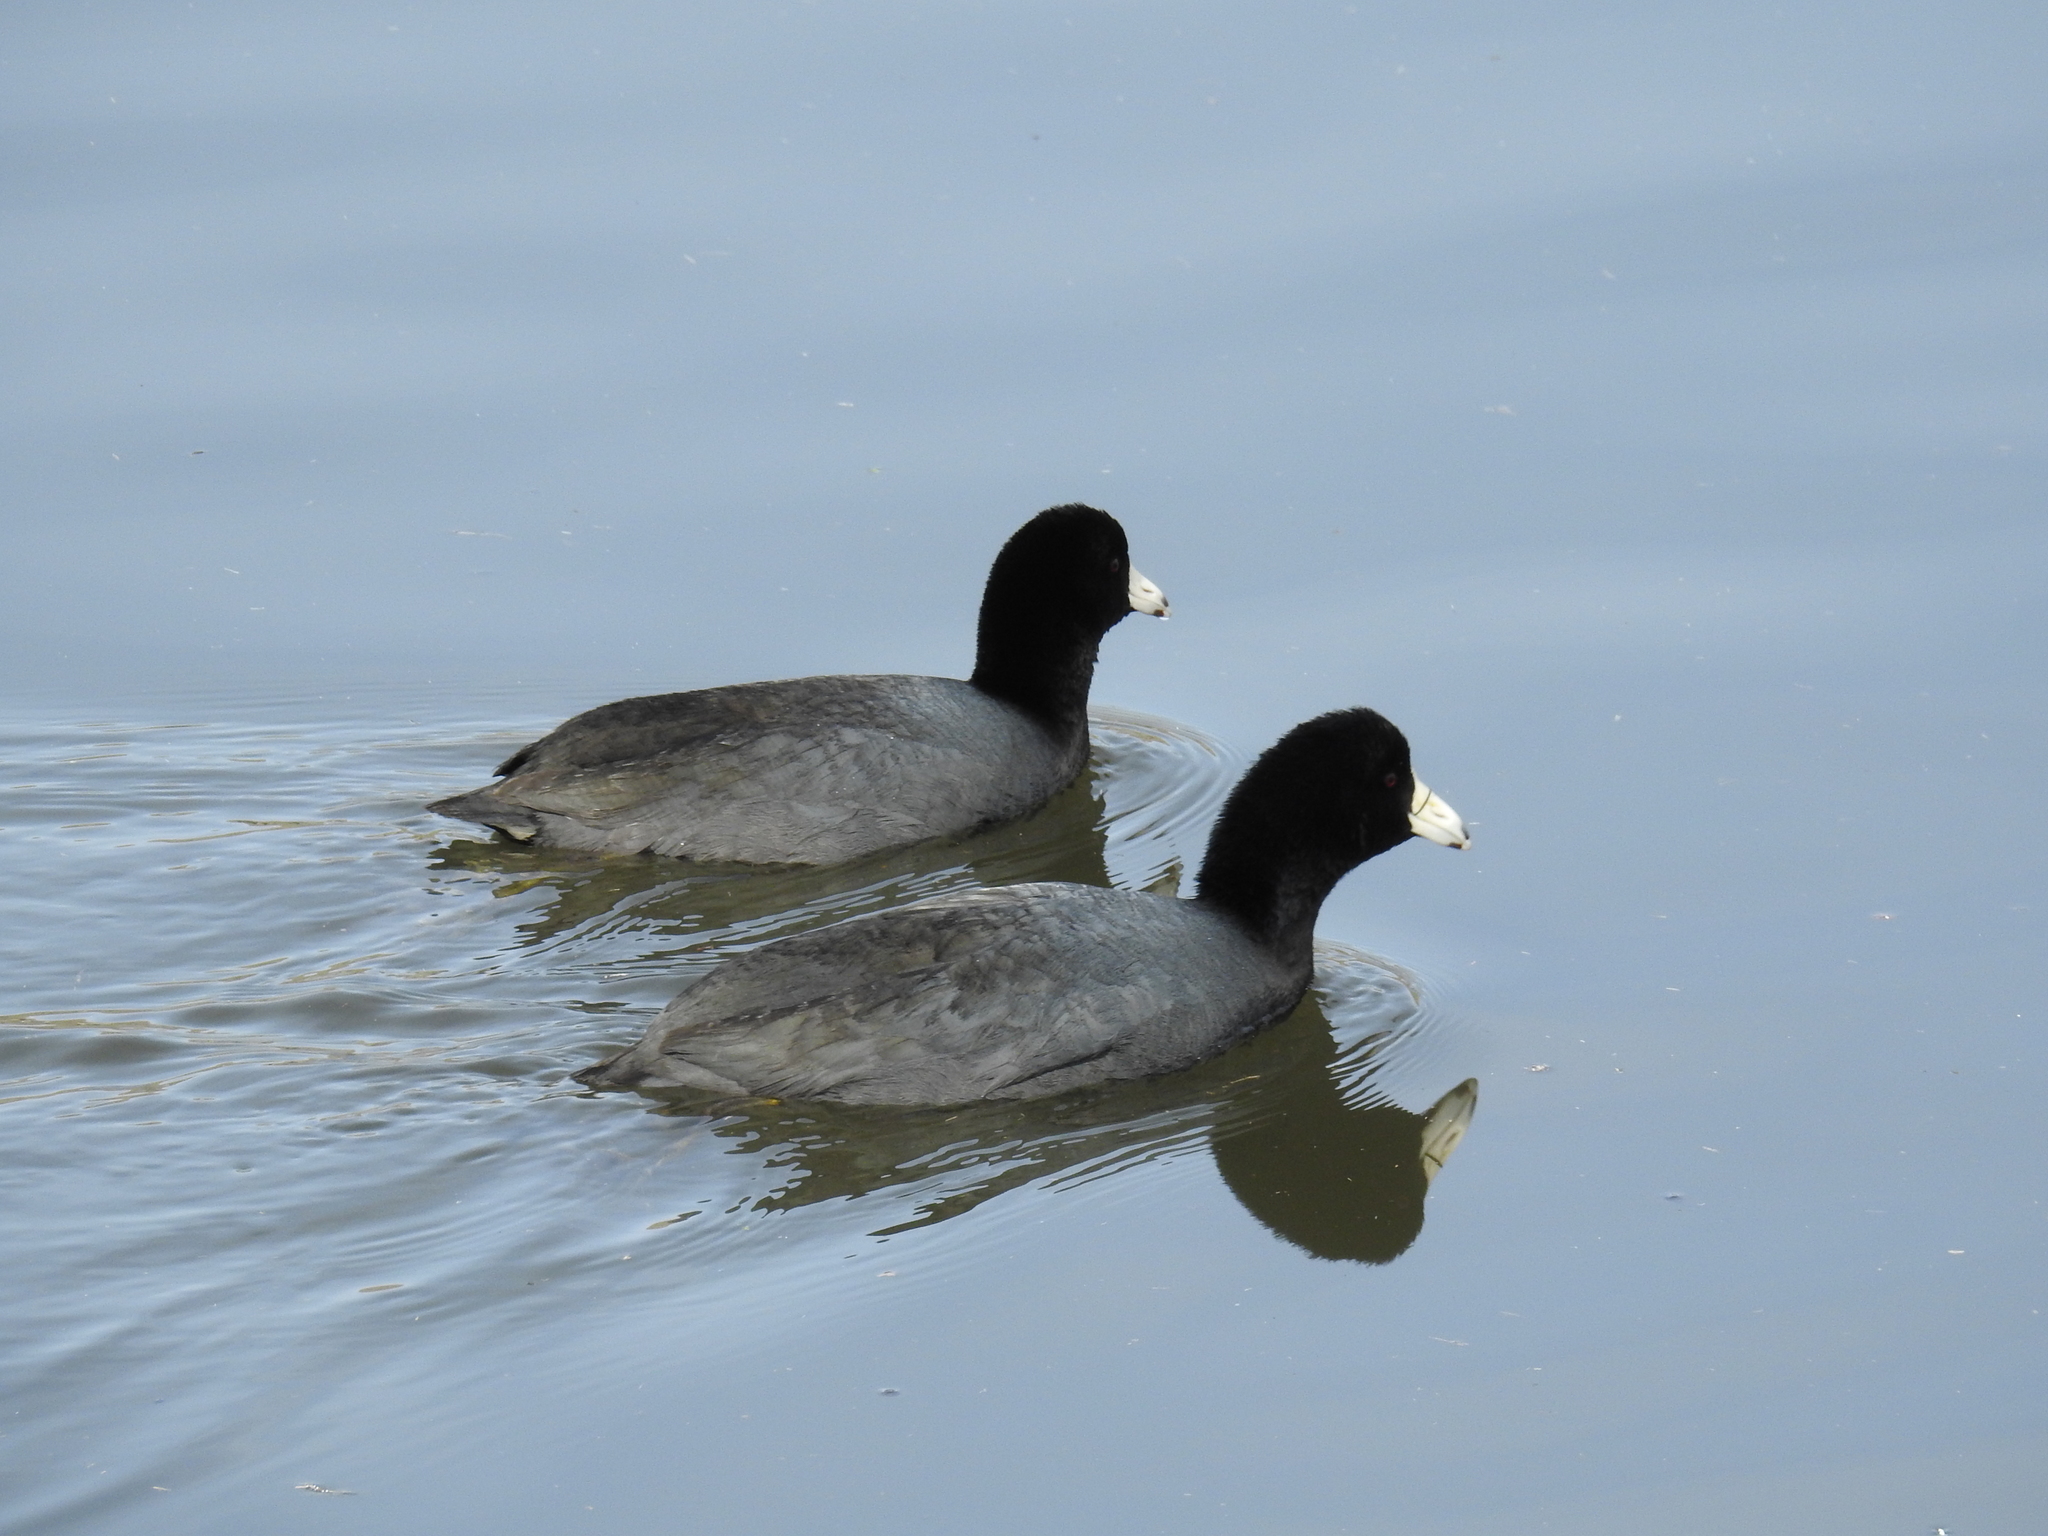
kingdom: Animalia
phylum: Chordata
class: Aves
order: Gruiformes
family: Rallidae
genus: Fulica
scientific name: Fulica americana
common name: American coot
